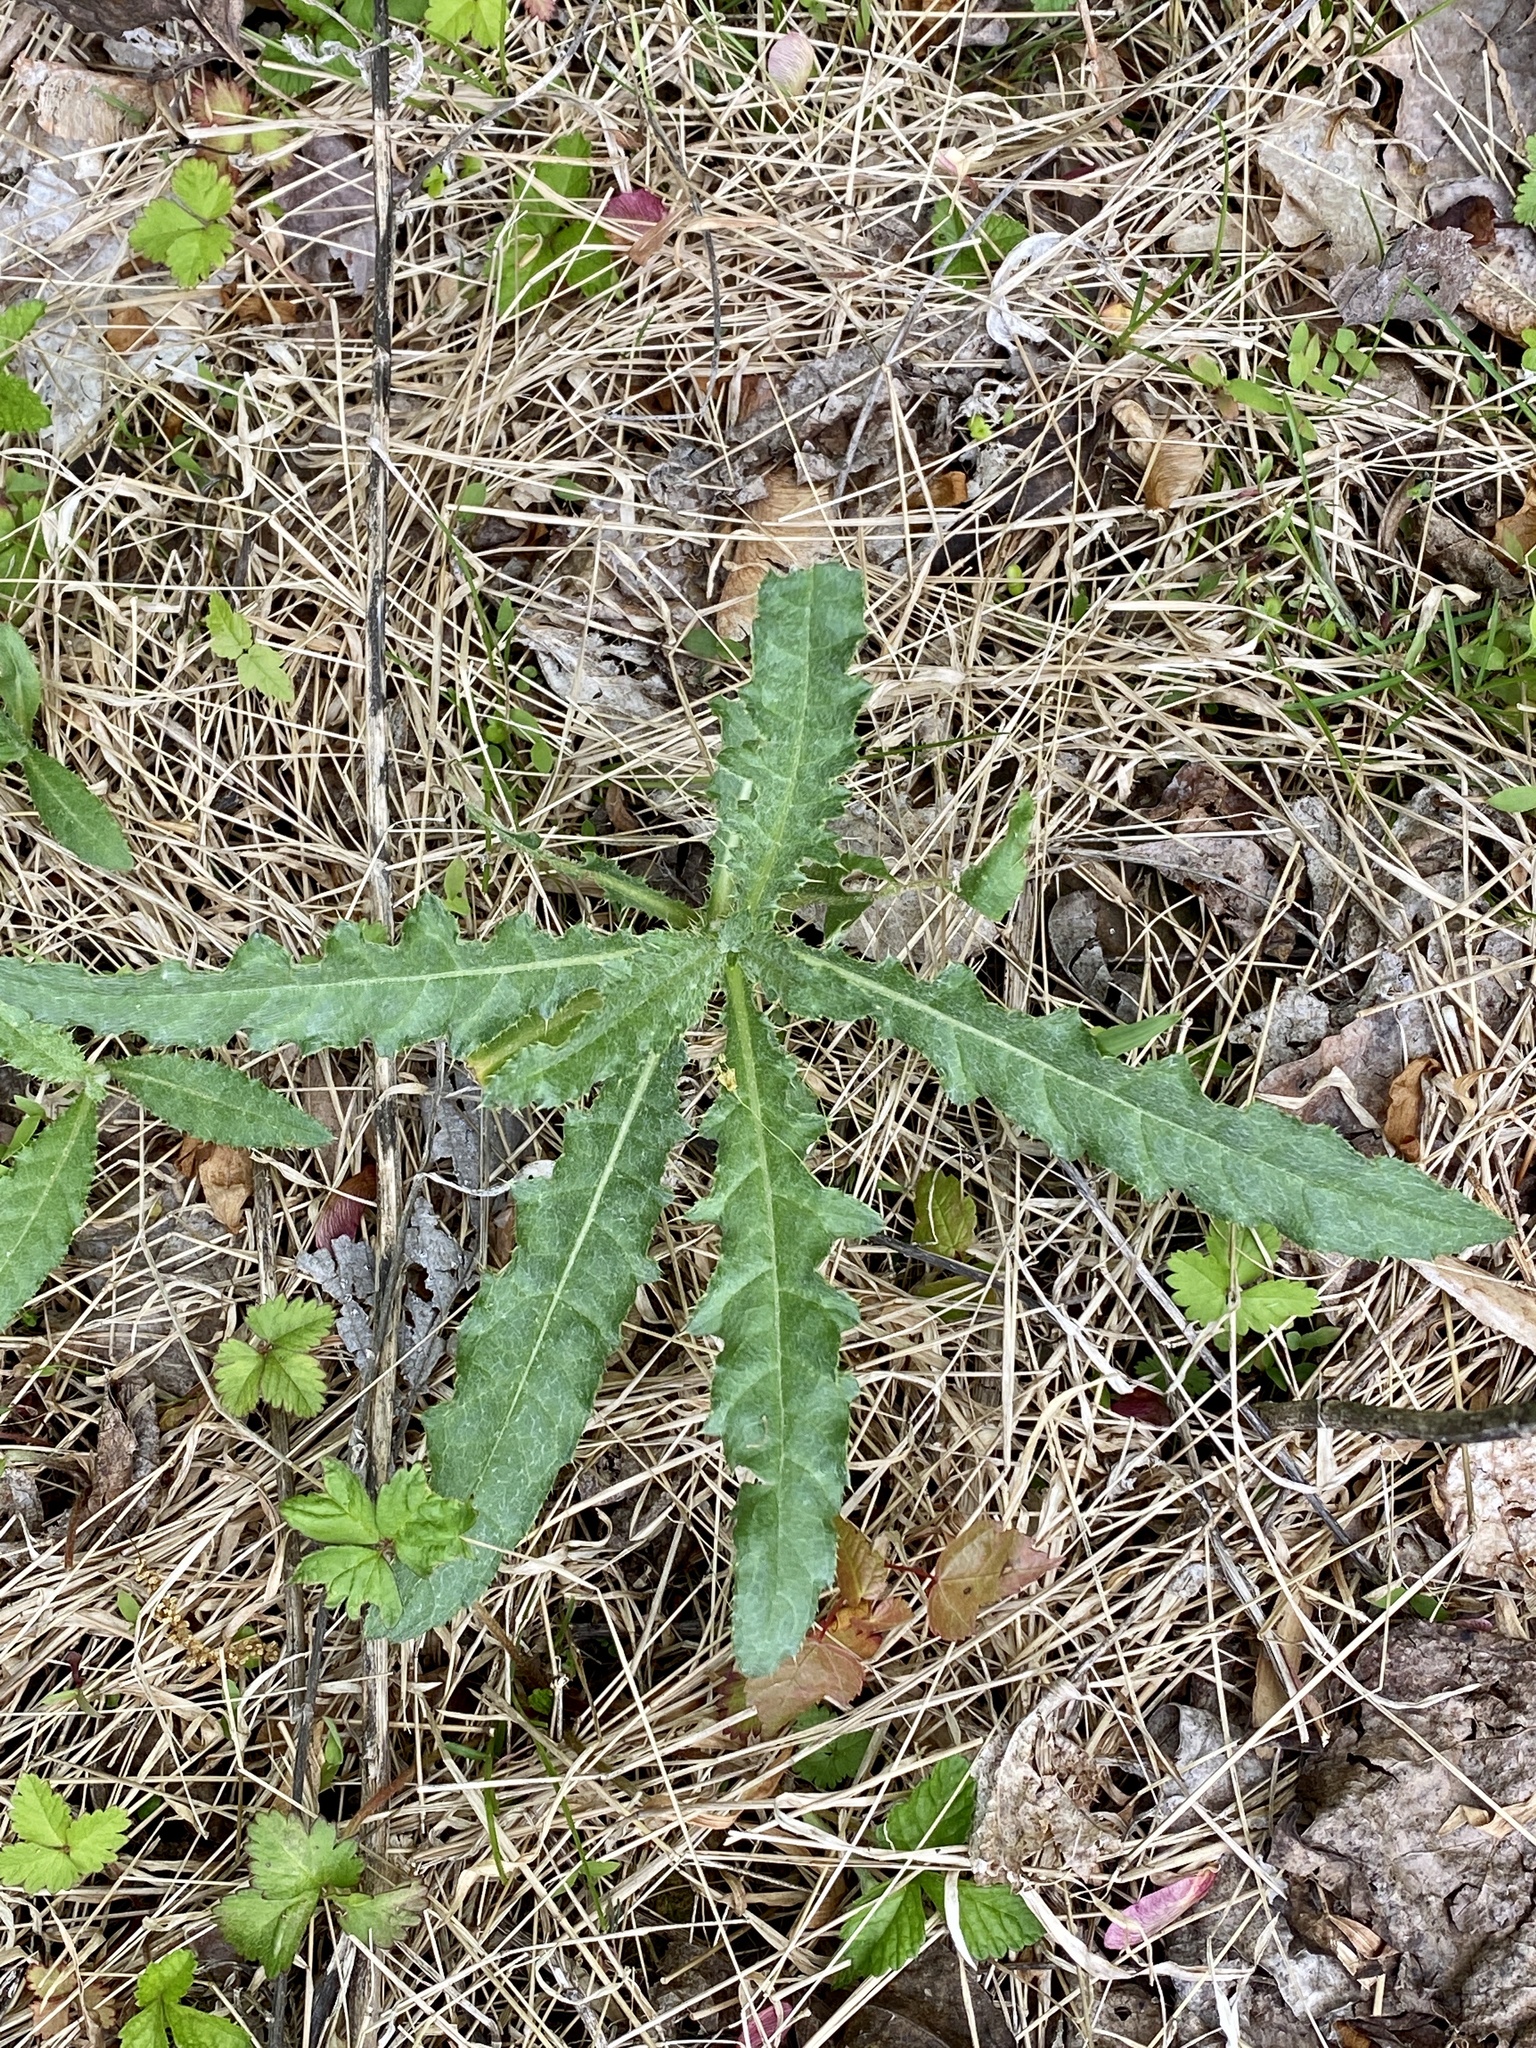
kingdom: Plantae
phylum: Tracheophyta
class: Magnoliopsida
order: Asterales
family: Asteraceae
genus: Cirsium
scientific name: Cirsium arvense
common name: Creeping thistle
